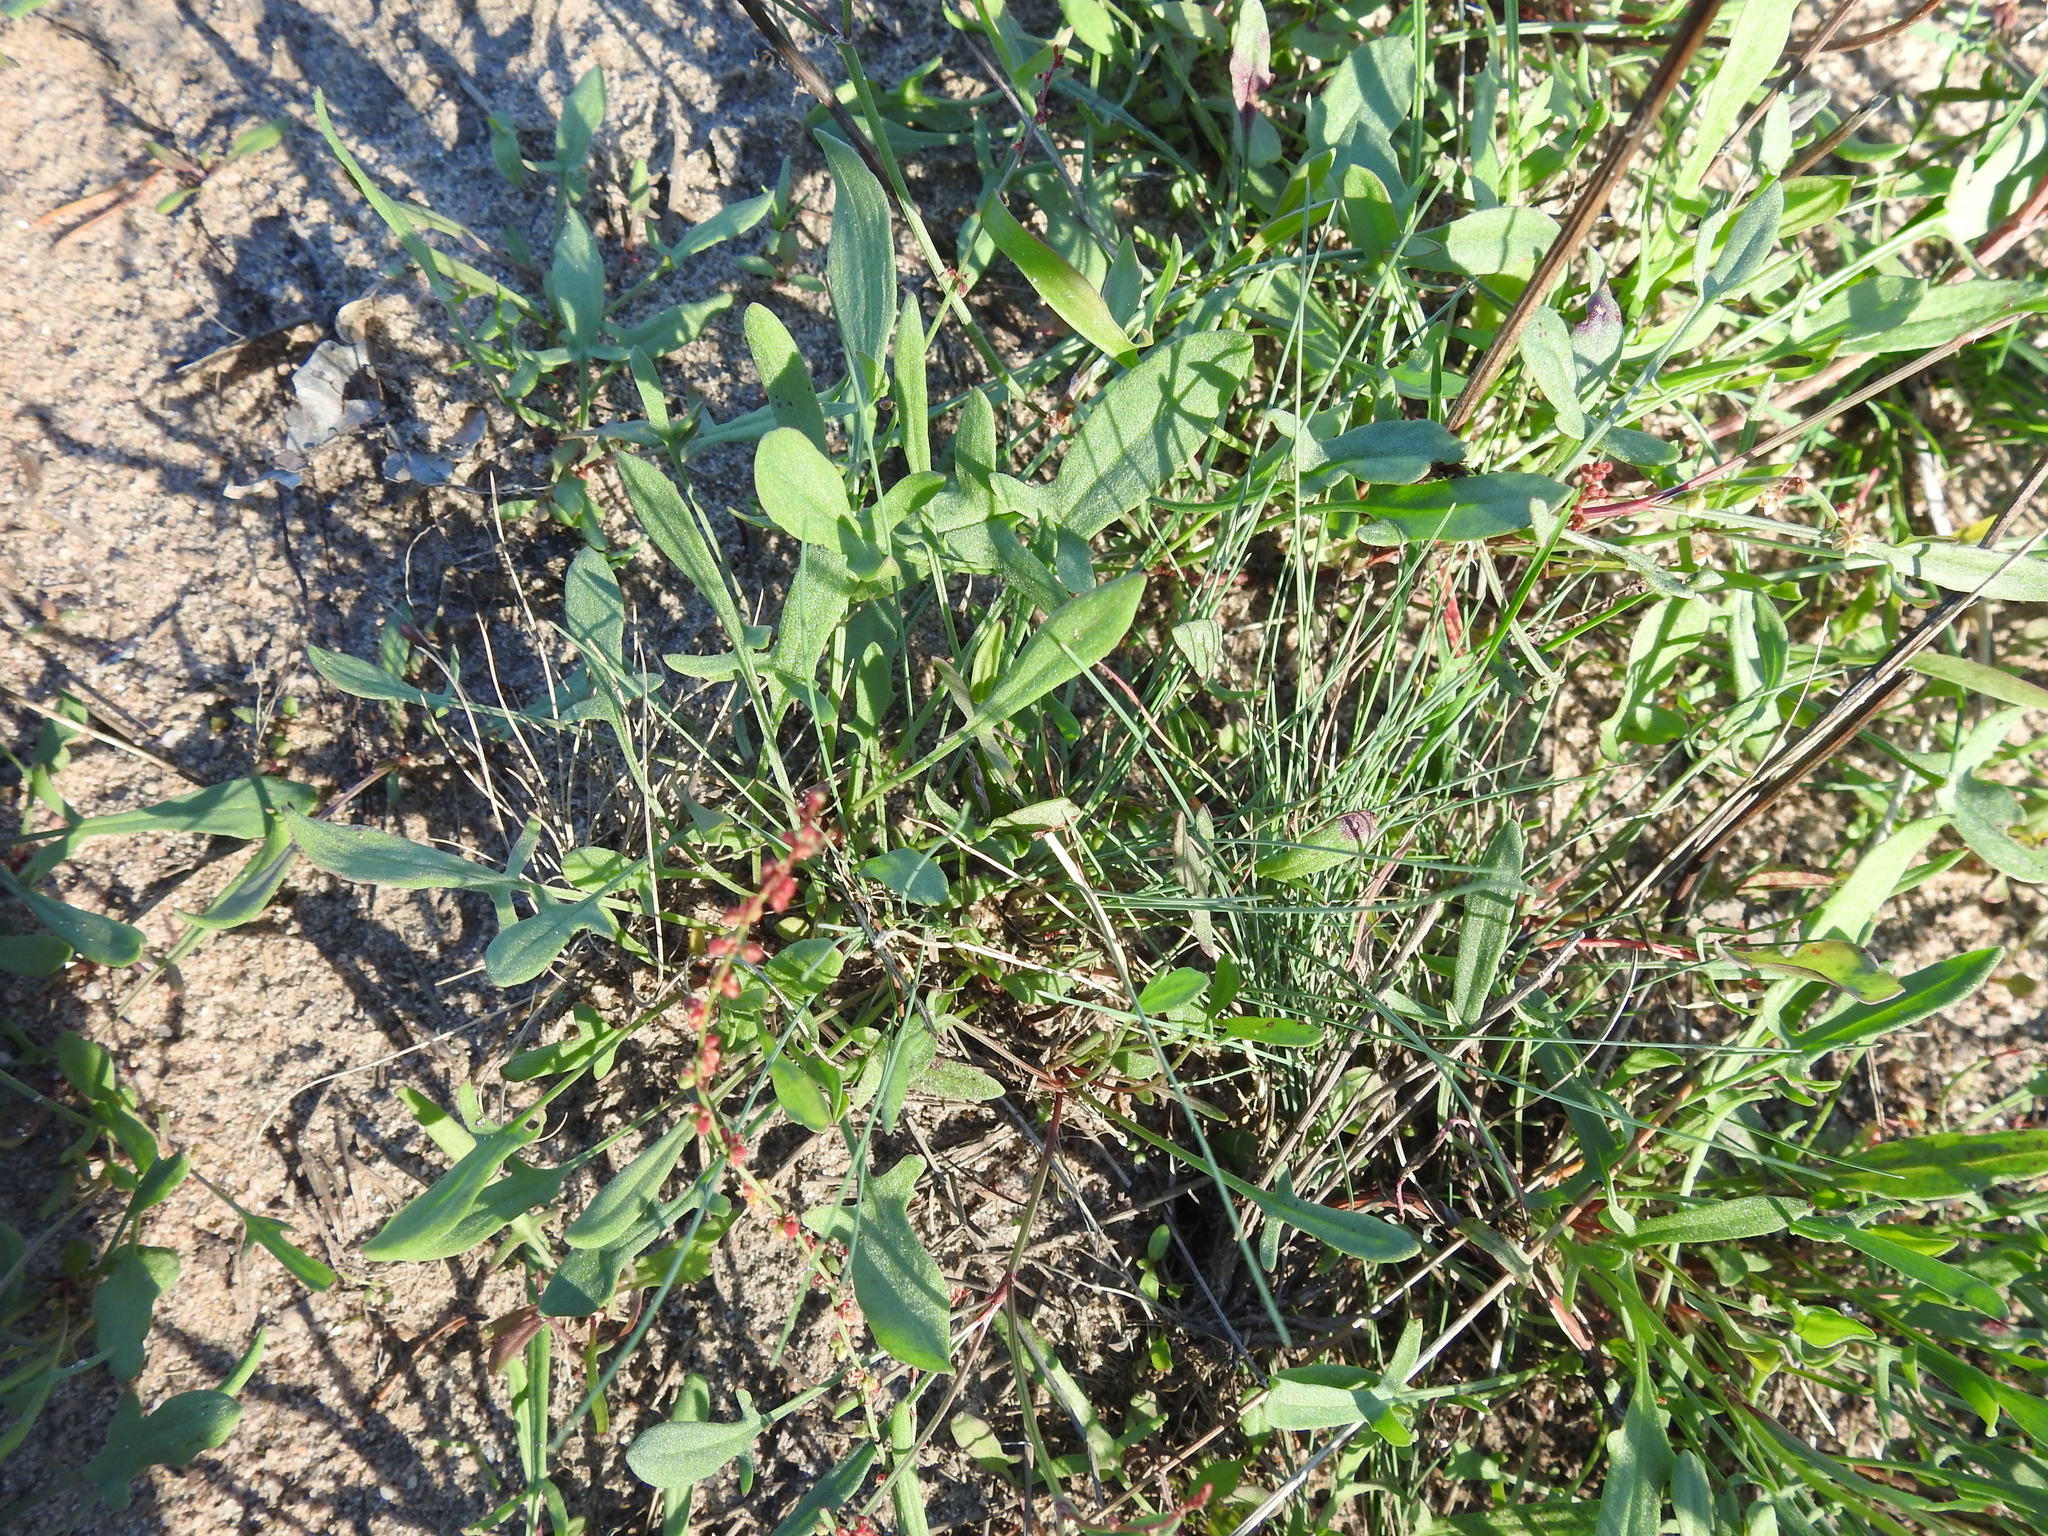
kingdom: Plantae
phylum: Tracheophyta
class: Magnoliopsida
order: Caryophyllales
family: Polygonaceae
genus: Rumex
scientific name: Rumex acetosella
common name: Common sheep sorrel
